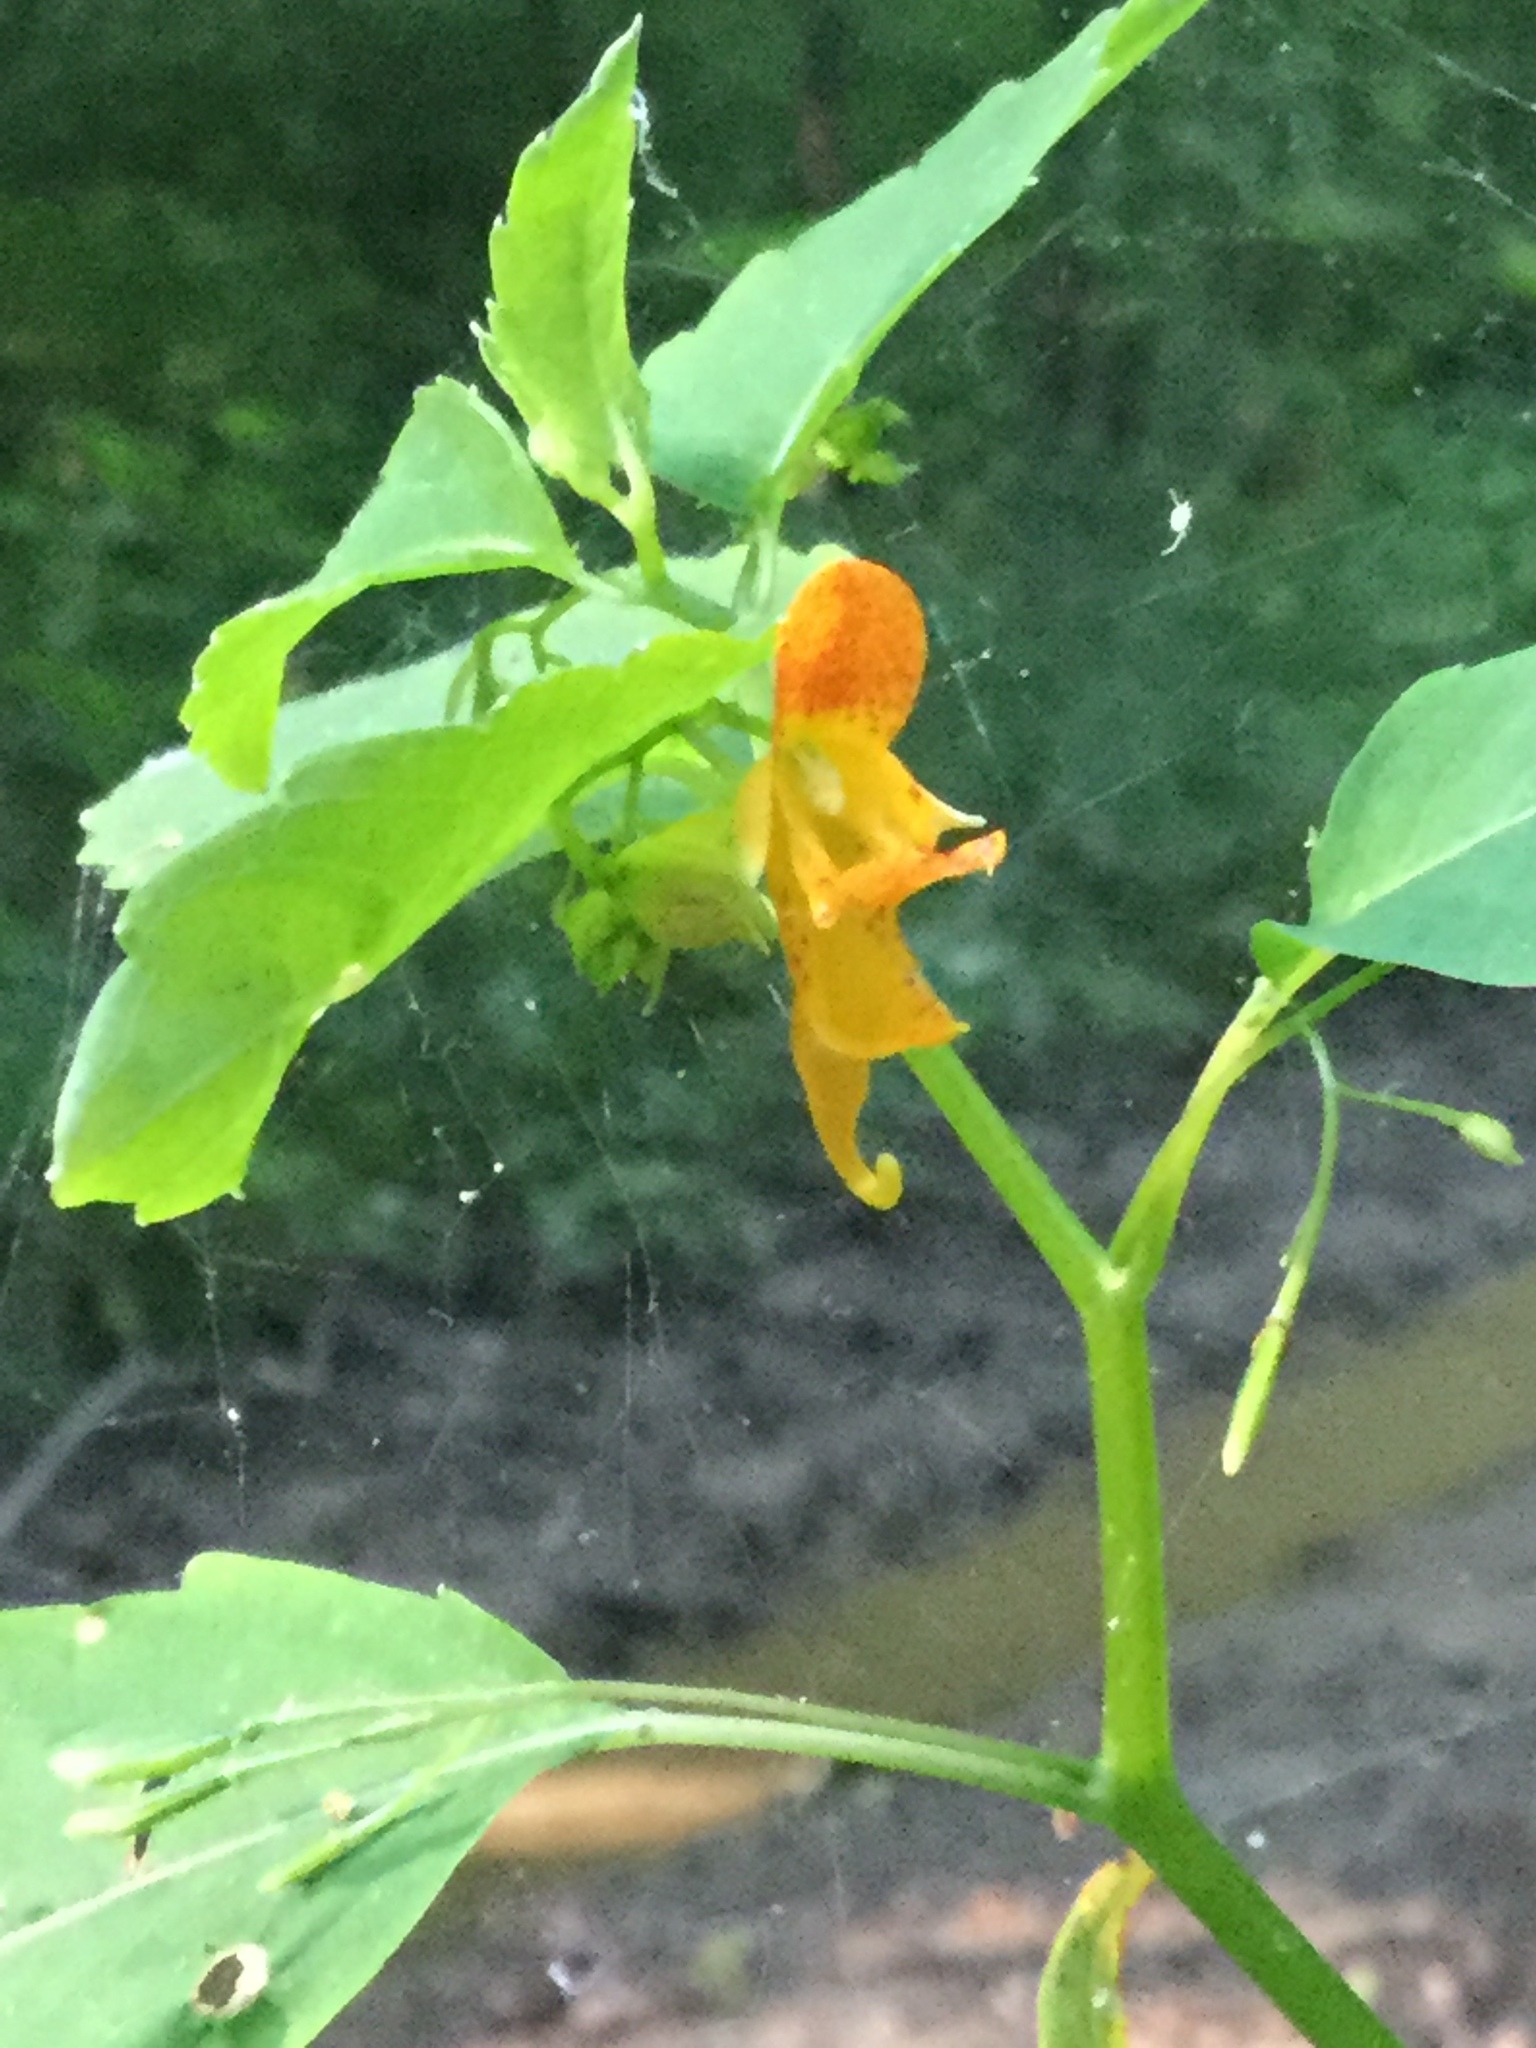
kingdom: Plantae
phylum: Tracheophyta
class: Magnoliopsida
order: Ericales
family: Balsaminaceae
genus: Impatiens
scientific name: Impatiens capensis
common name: Orange balsam
